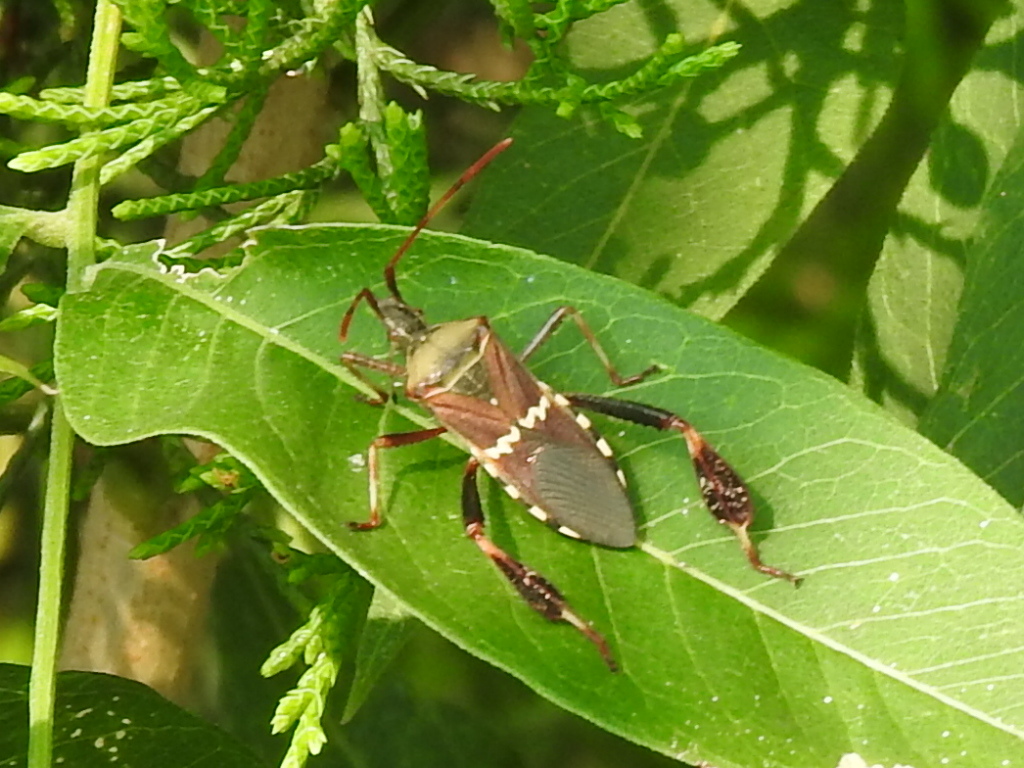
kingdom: Animalia
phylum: Arthropoda
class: Insecta
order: Hemiptera
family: Coreidae
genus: Leptoglossus
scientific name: Leptoglossus clypealis
